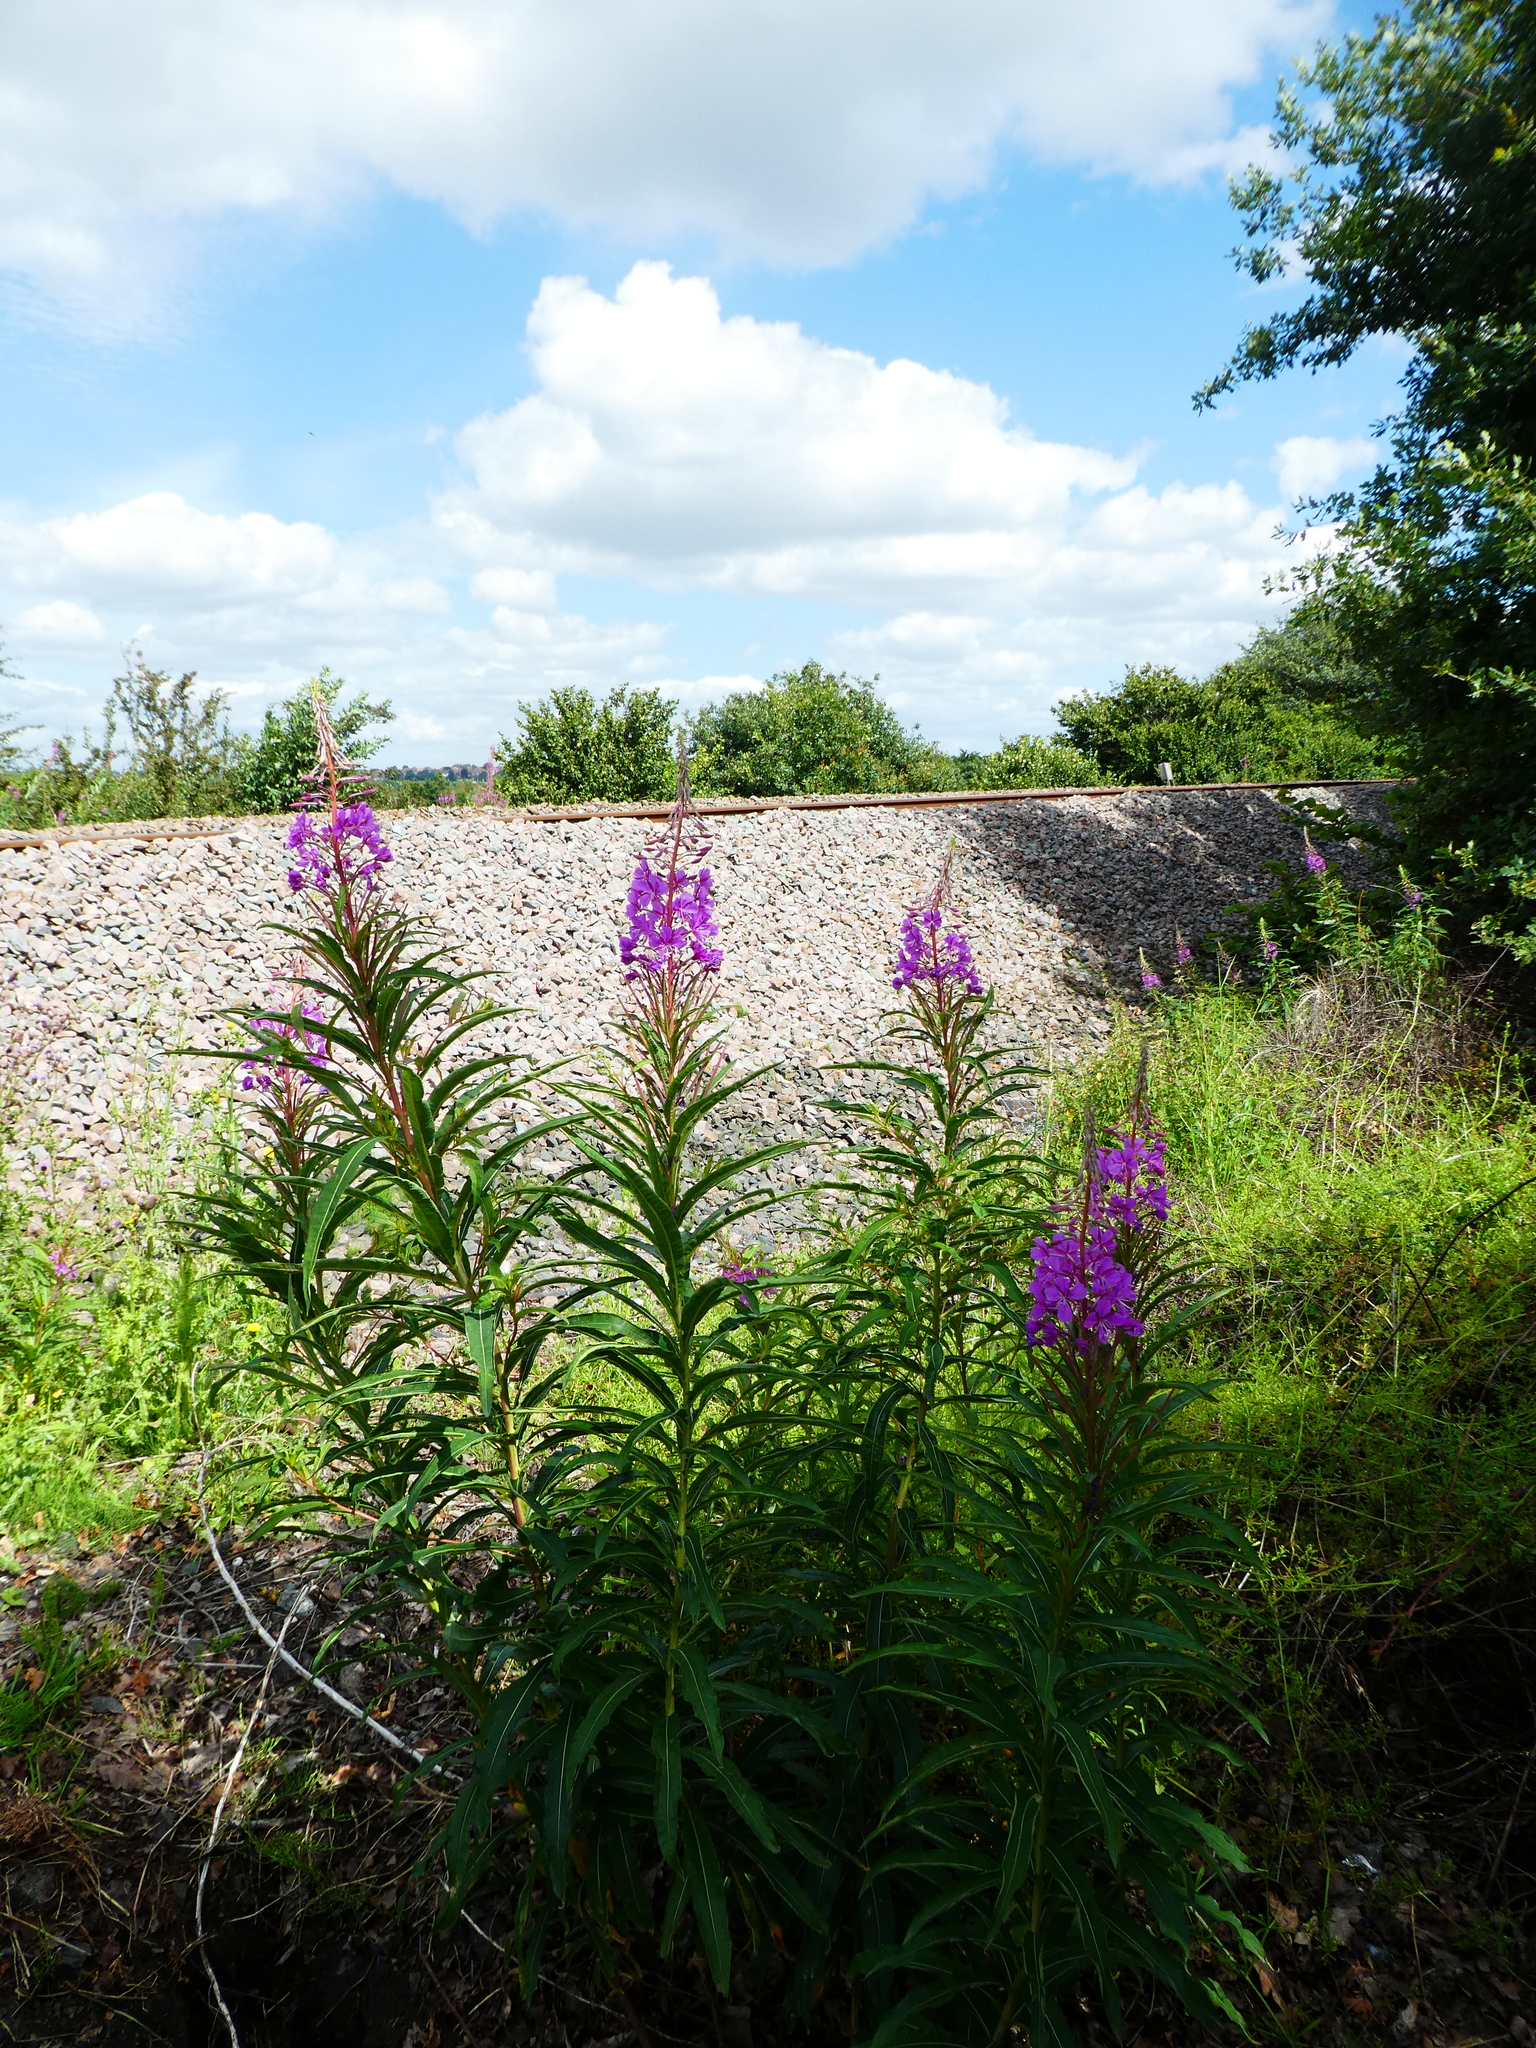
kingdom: Plantae
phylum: Tracheophyta
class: Magnoliopsida
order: Myrtales
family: Onagraceae
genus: Chamaenerion
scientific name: Chamaenerion angustifolium
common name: Fireweed
